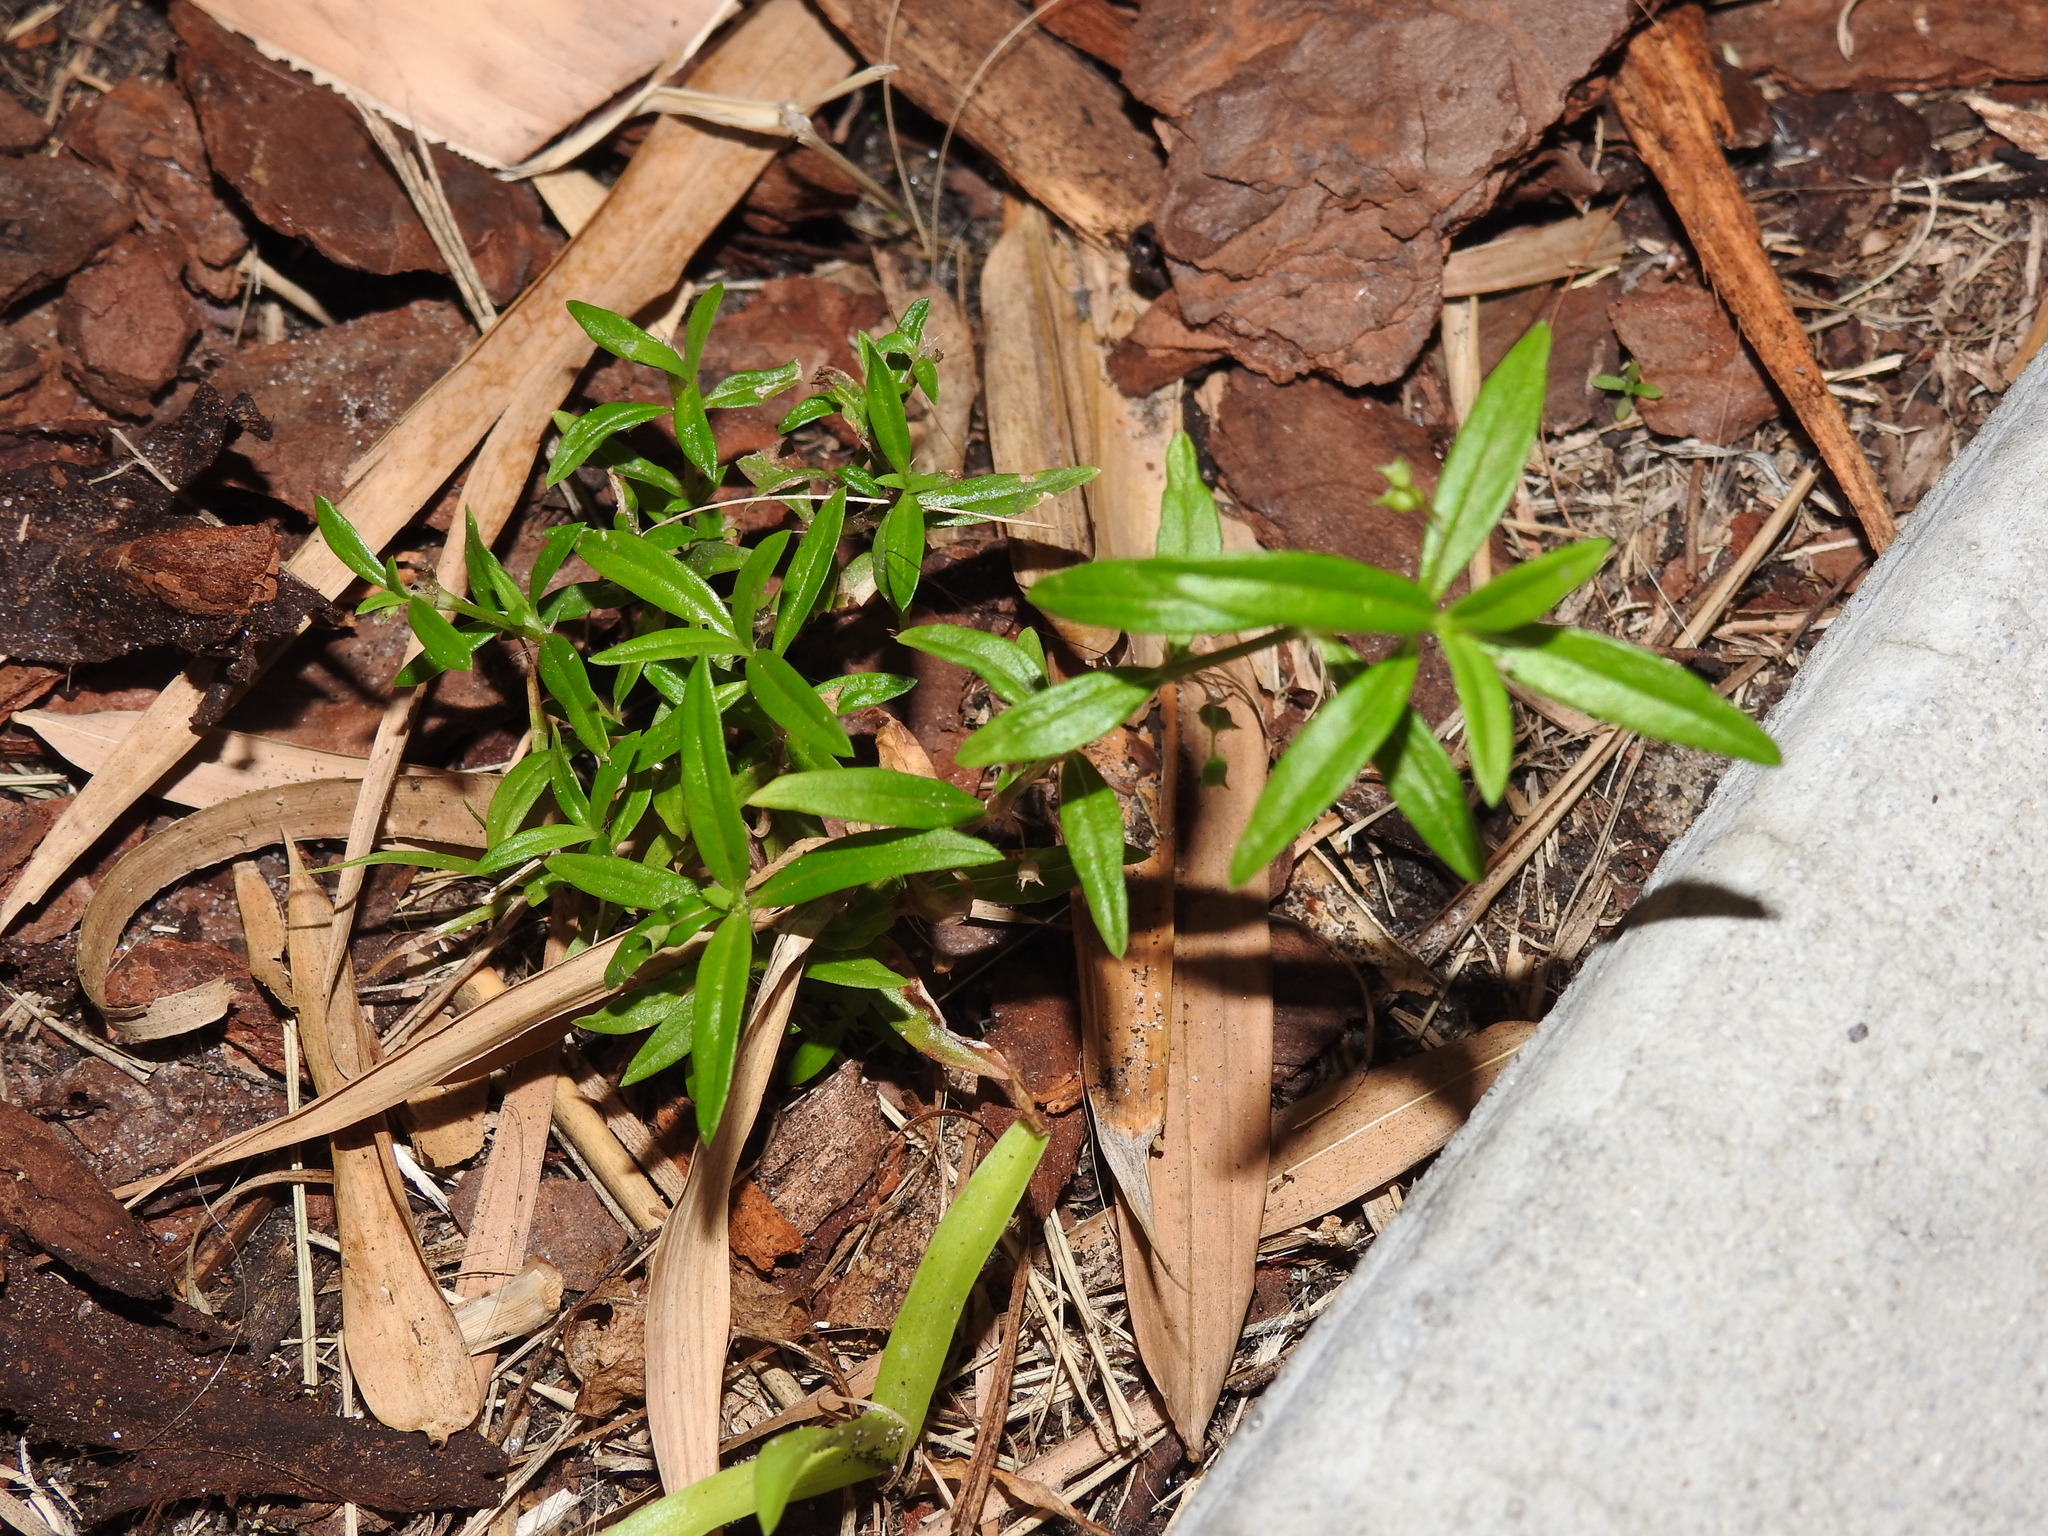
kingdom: Plantae
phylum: Tracheophyta
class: Magnoliopsida
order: Gentianales
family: Rubiaceae
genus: Oldenlandia
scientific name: Oldenlandia corymbosa
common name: Flat-top mille graines
